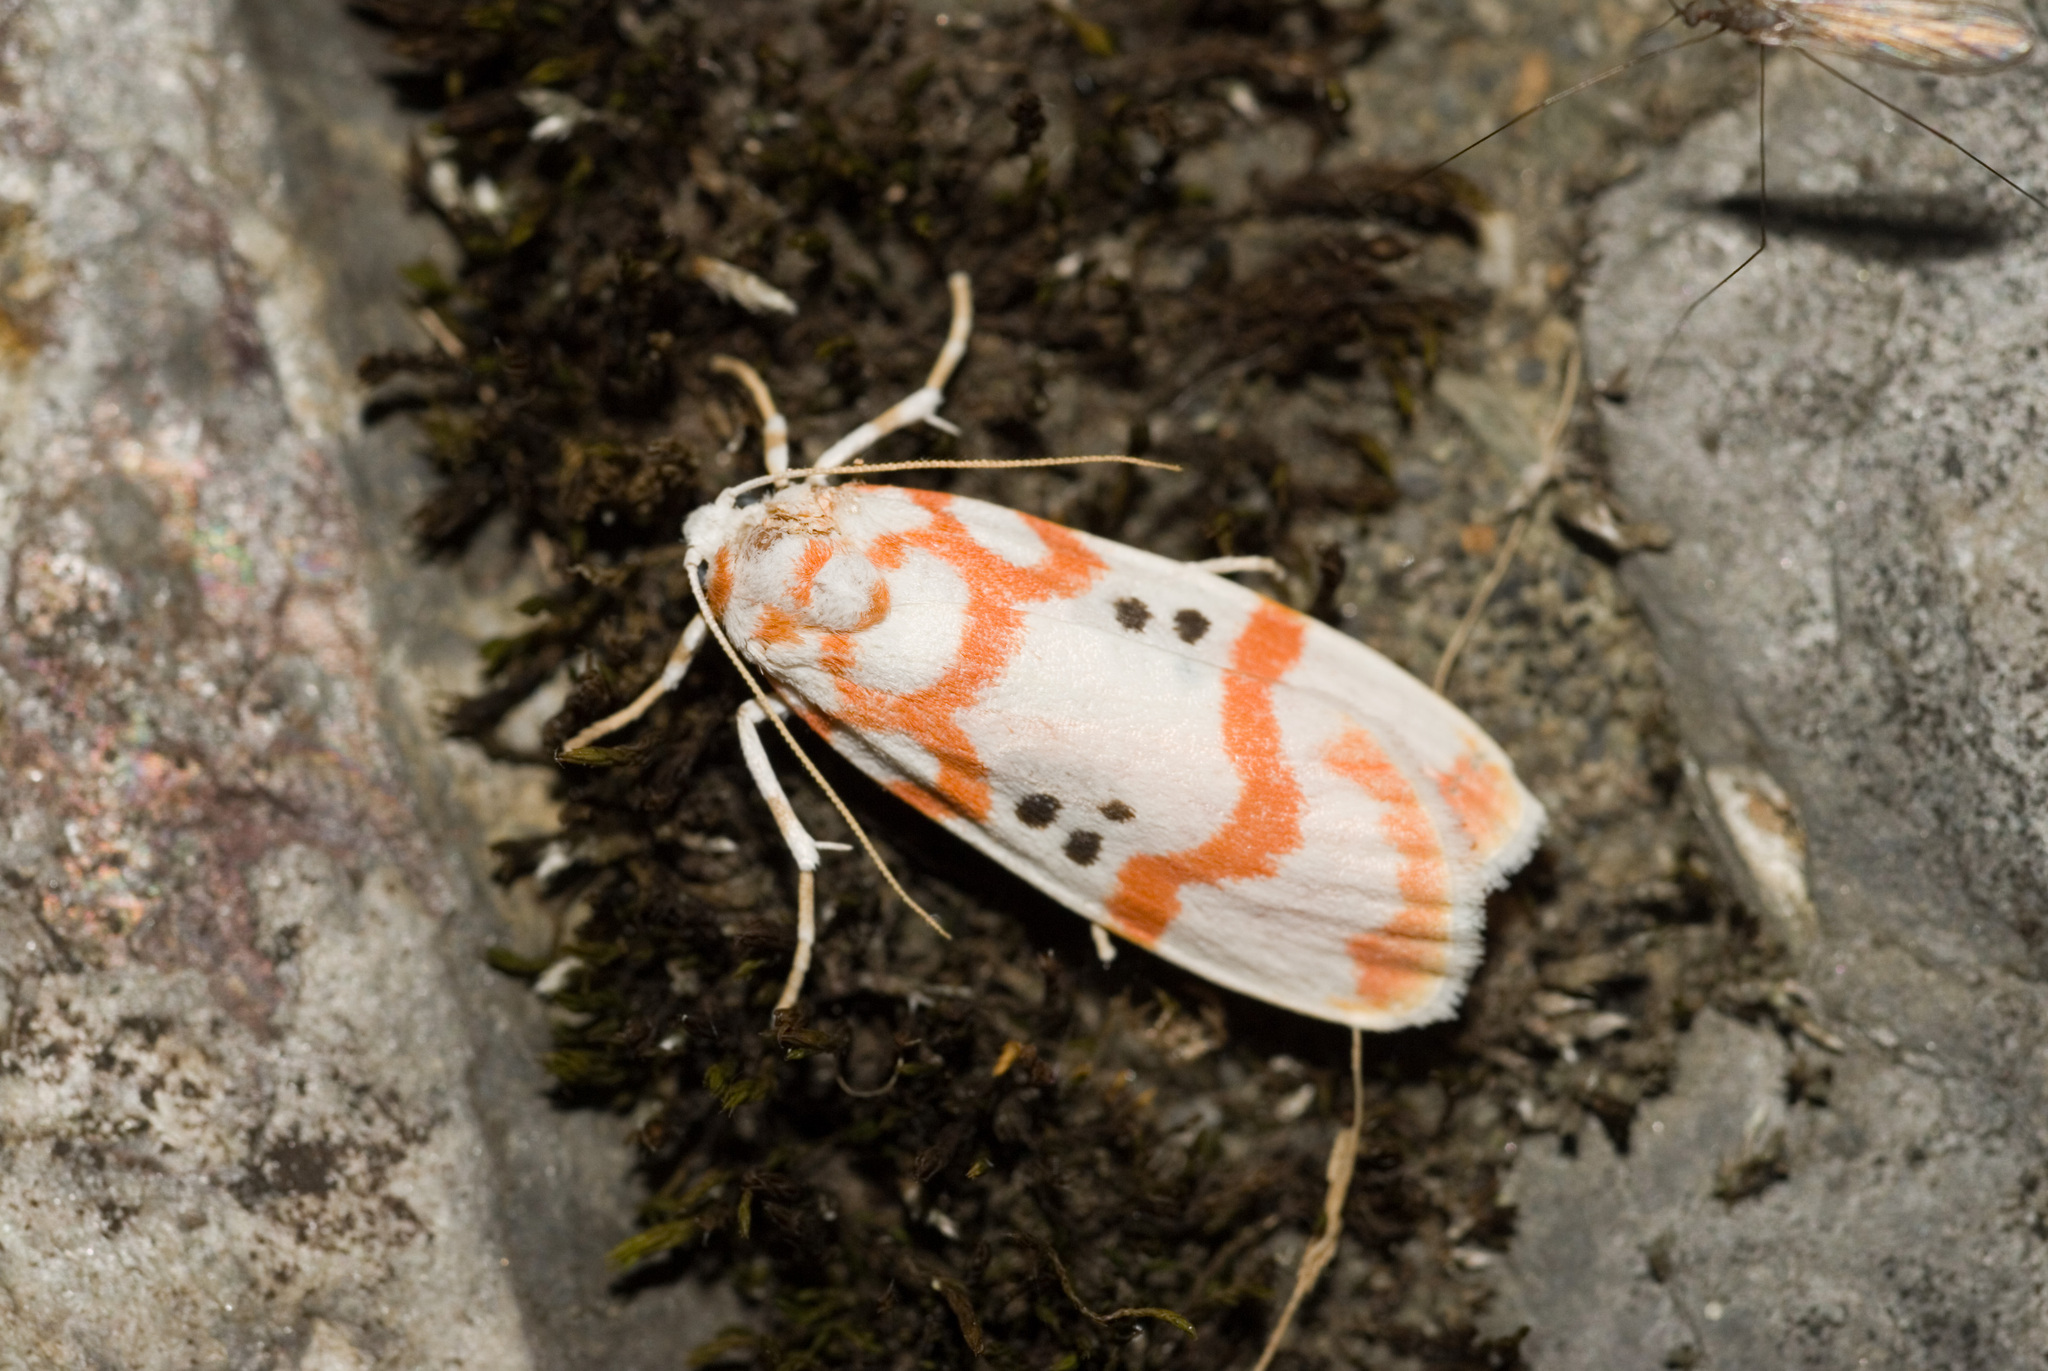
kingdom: Animalia
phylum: Arthropoda
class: Insecta
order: Lepidoptera
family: Erebidae
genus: Cyana
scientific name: Cyana formosana
